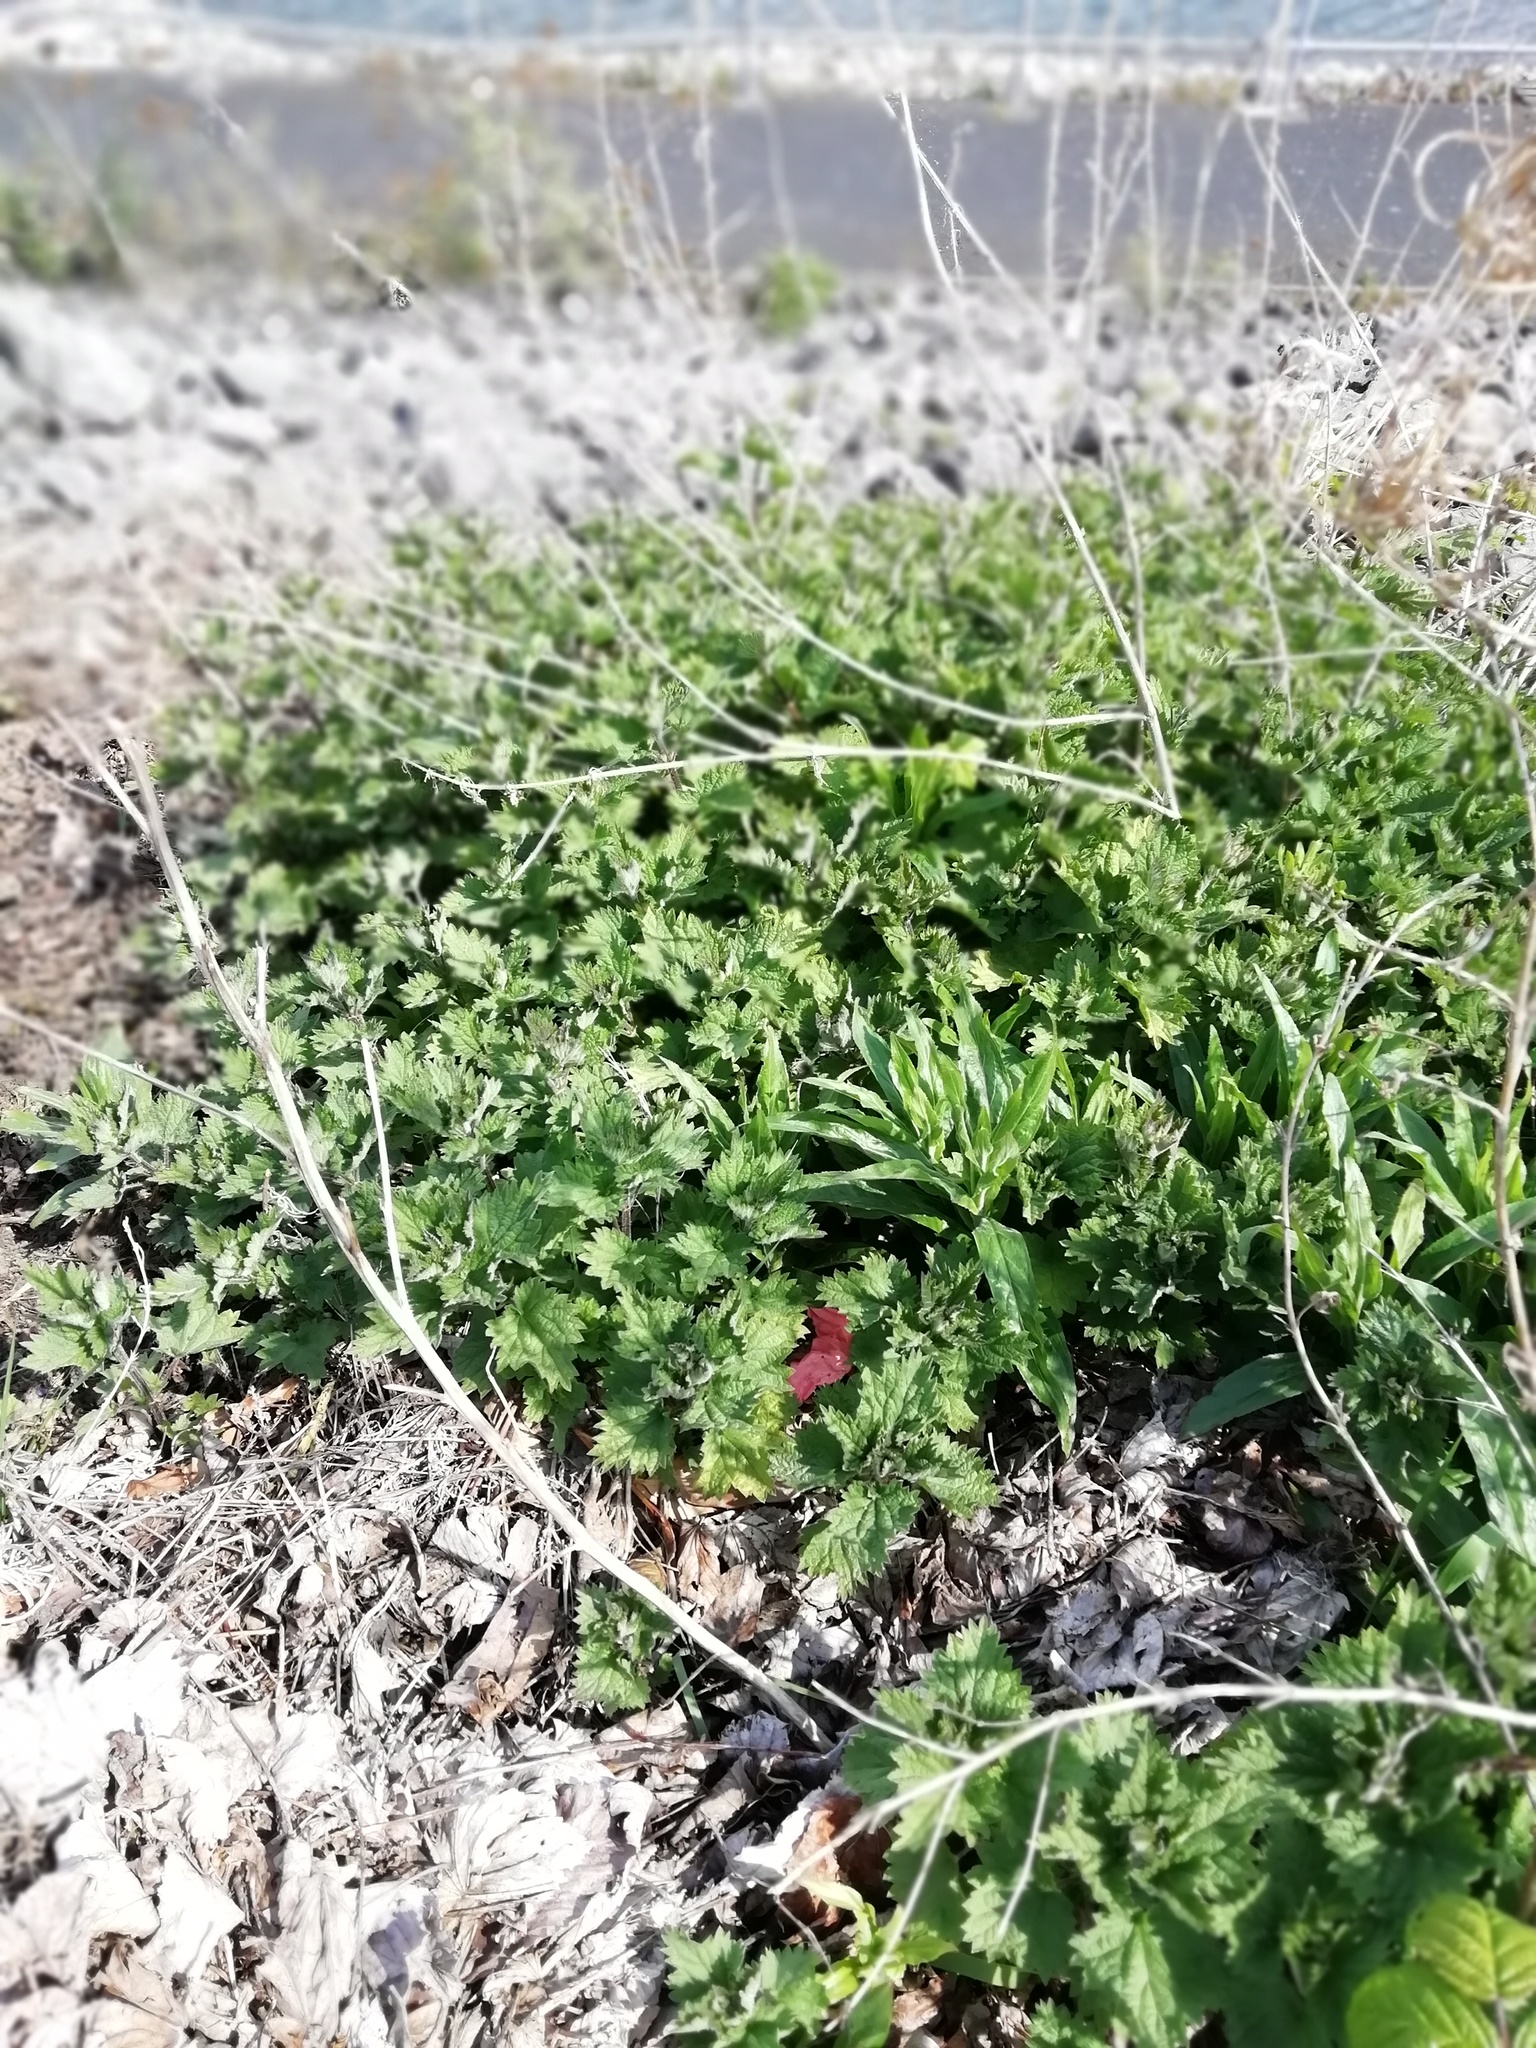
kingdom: Plantae
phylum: Tracheophyta
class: Magnoliopsida
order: Rosales
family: Urticaceae
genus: Urtica
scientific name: Urtica dioica
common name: Common nettle
